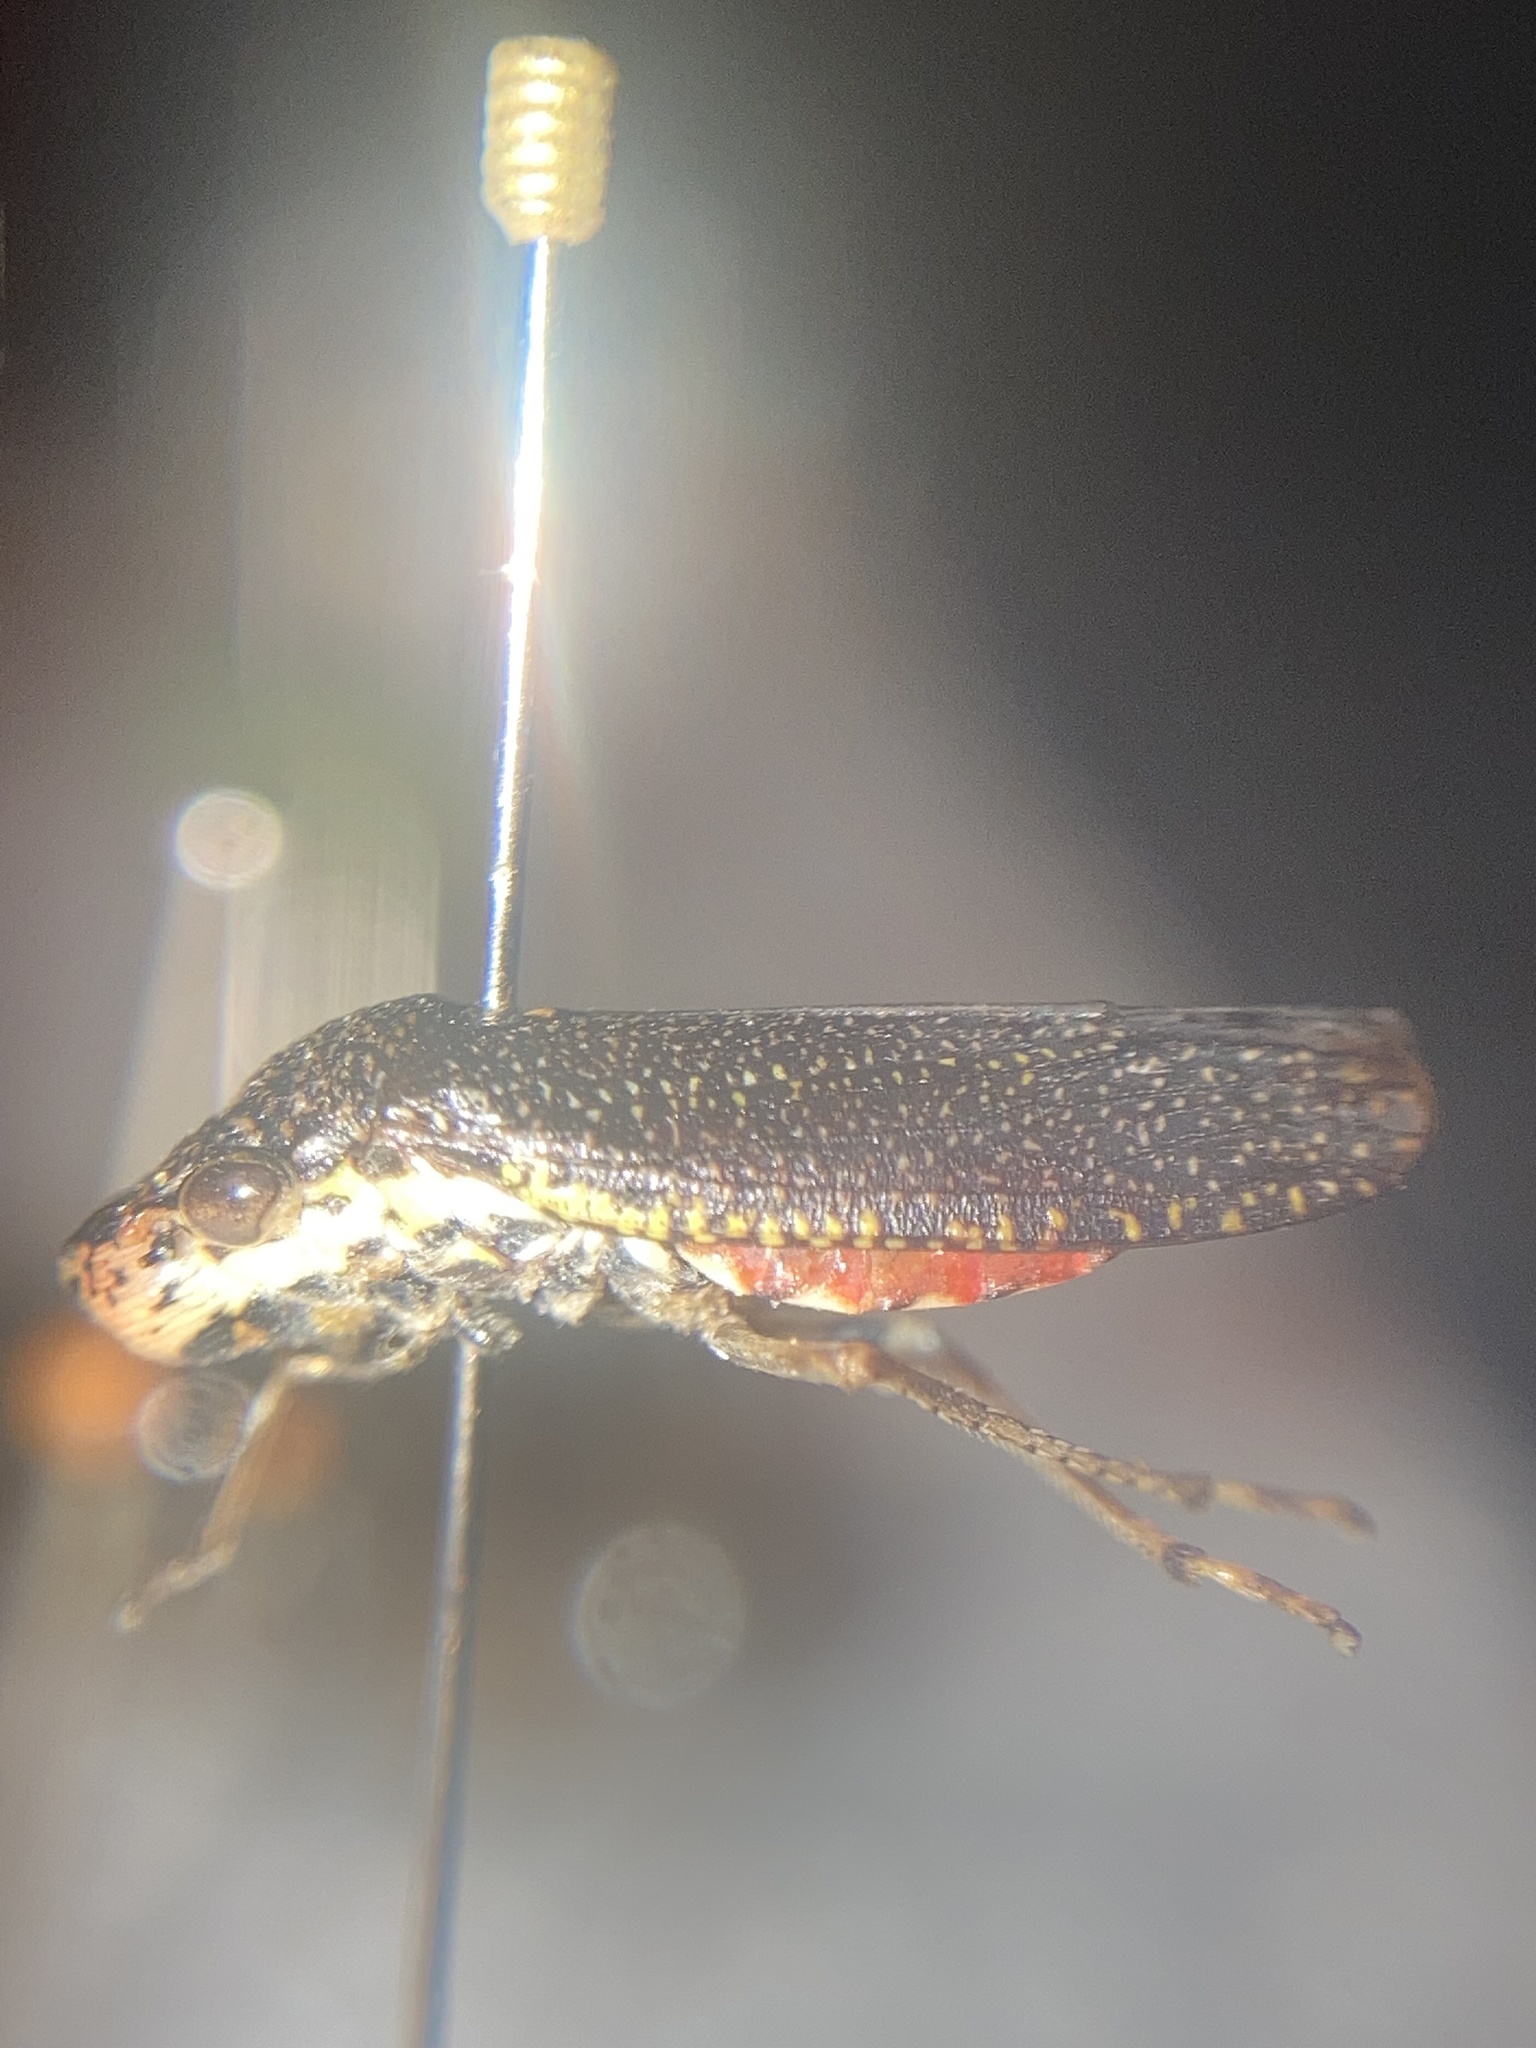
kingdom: Animalia
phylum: Arthropoda
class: Insecta
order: Hemiptera
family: Cicadellidae
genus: Paraulacizes
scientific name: Paraulacizes irrorata
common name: Speckled sharpshooter
